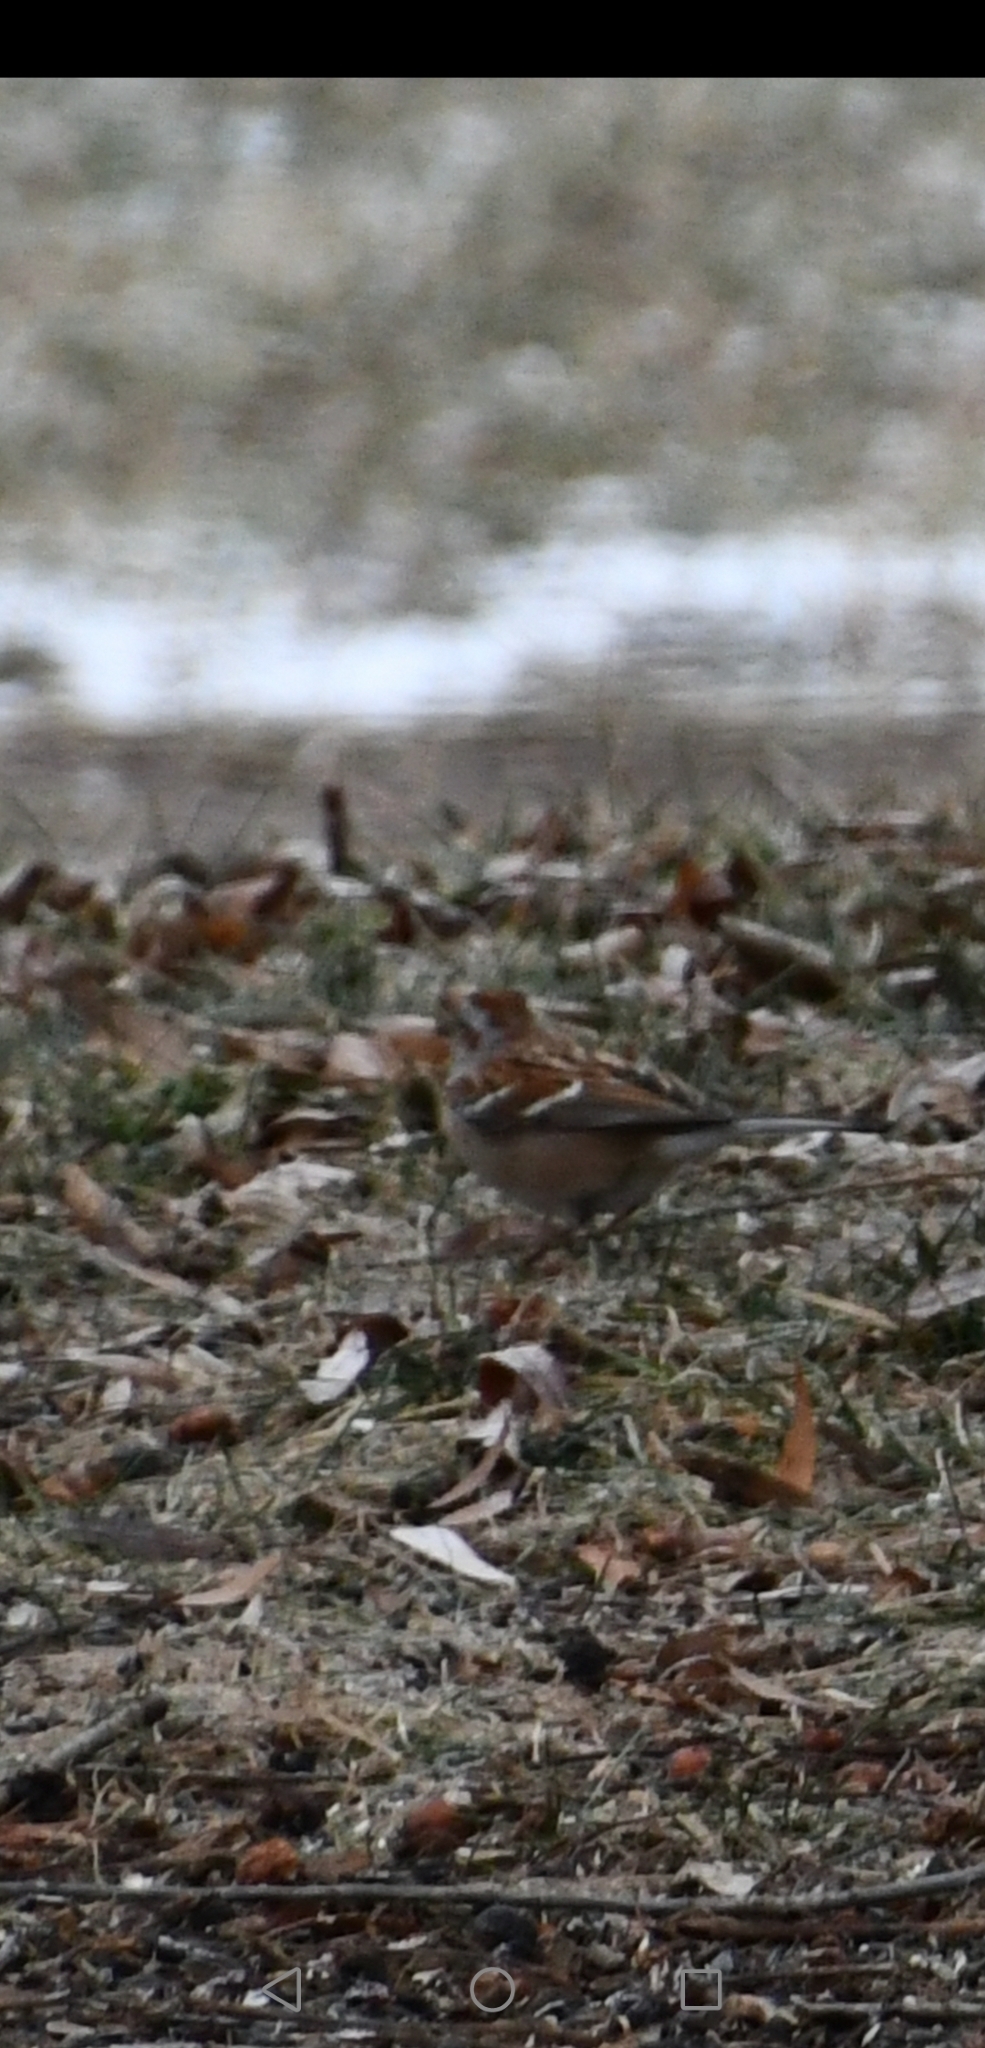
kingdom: Animalia
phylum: Chordata
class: Aves
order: Passeriformes
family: Passerellidae
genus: Spizelloides
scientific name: Spizelloides arborea
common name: American tree sparrow
